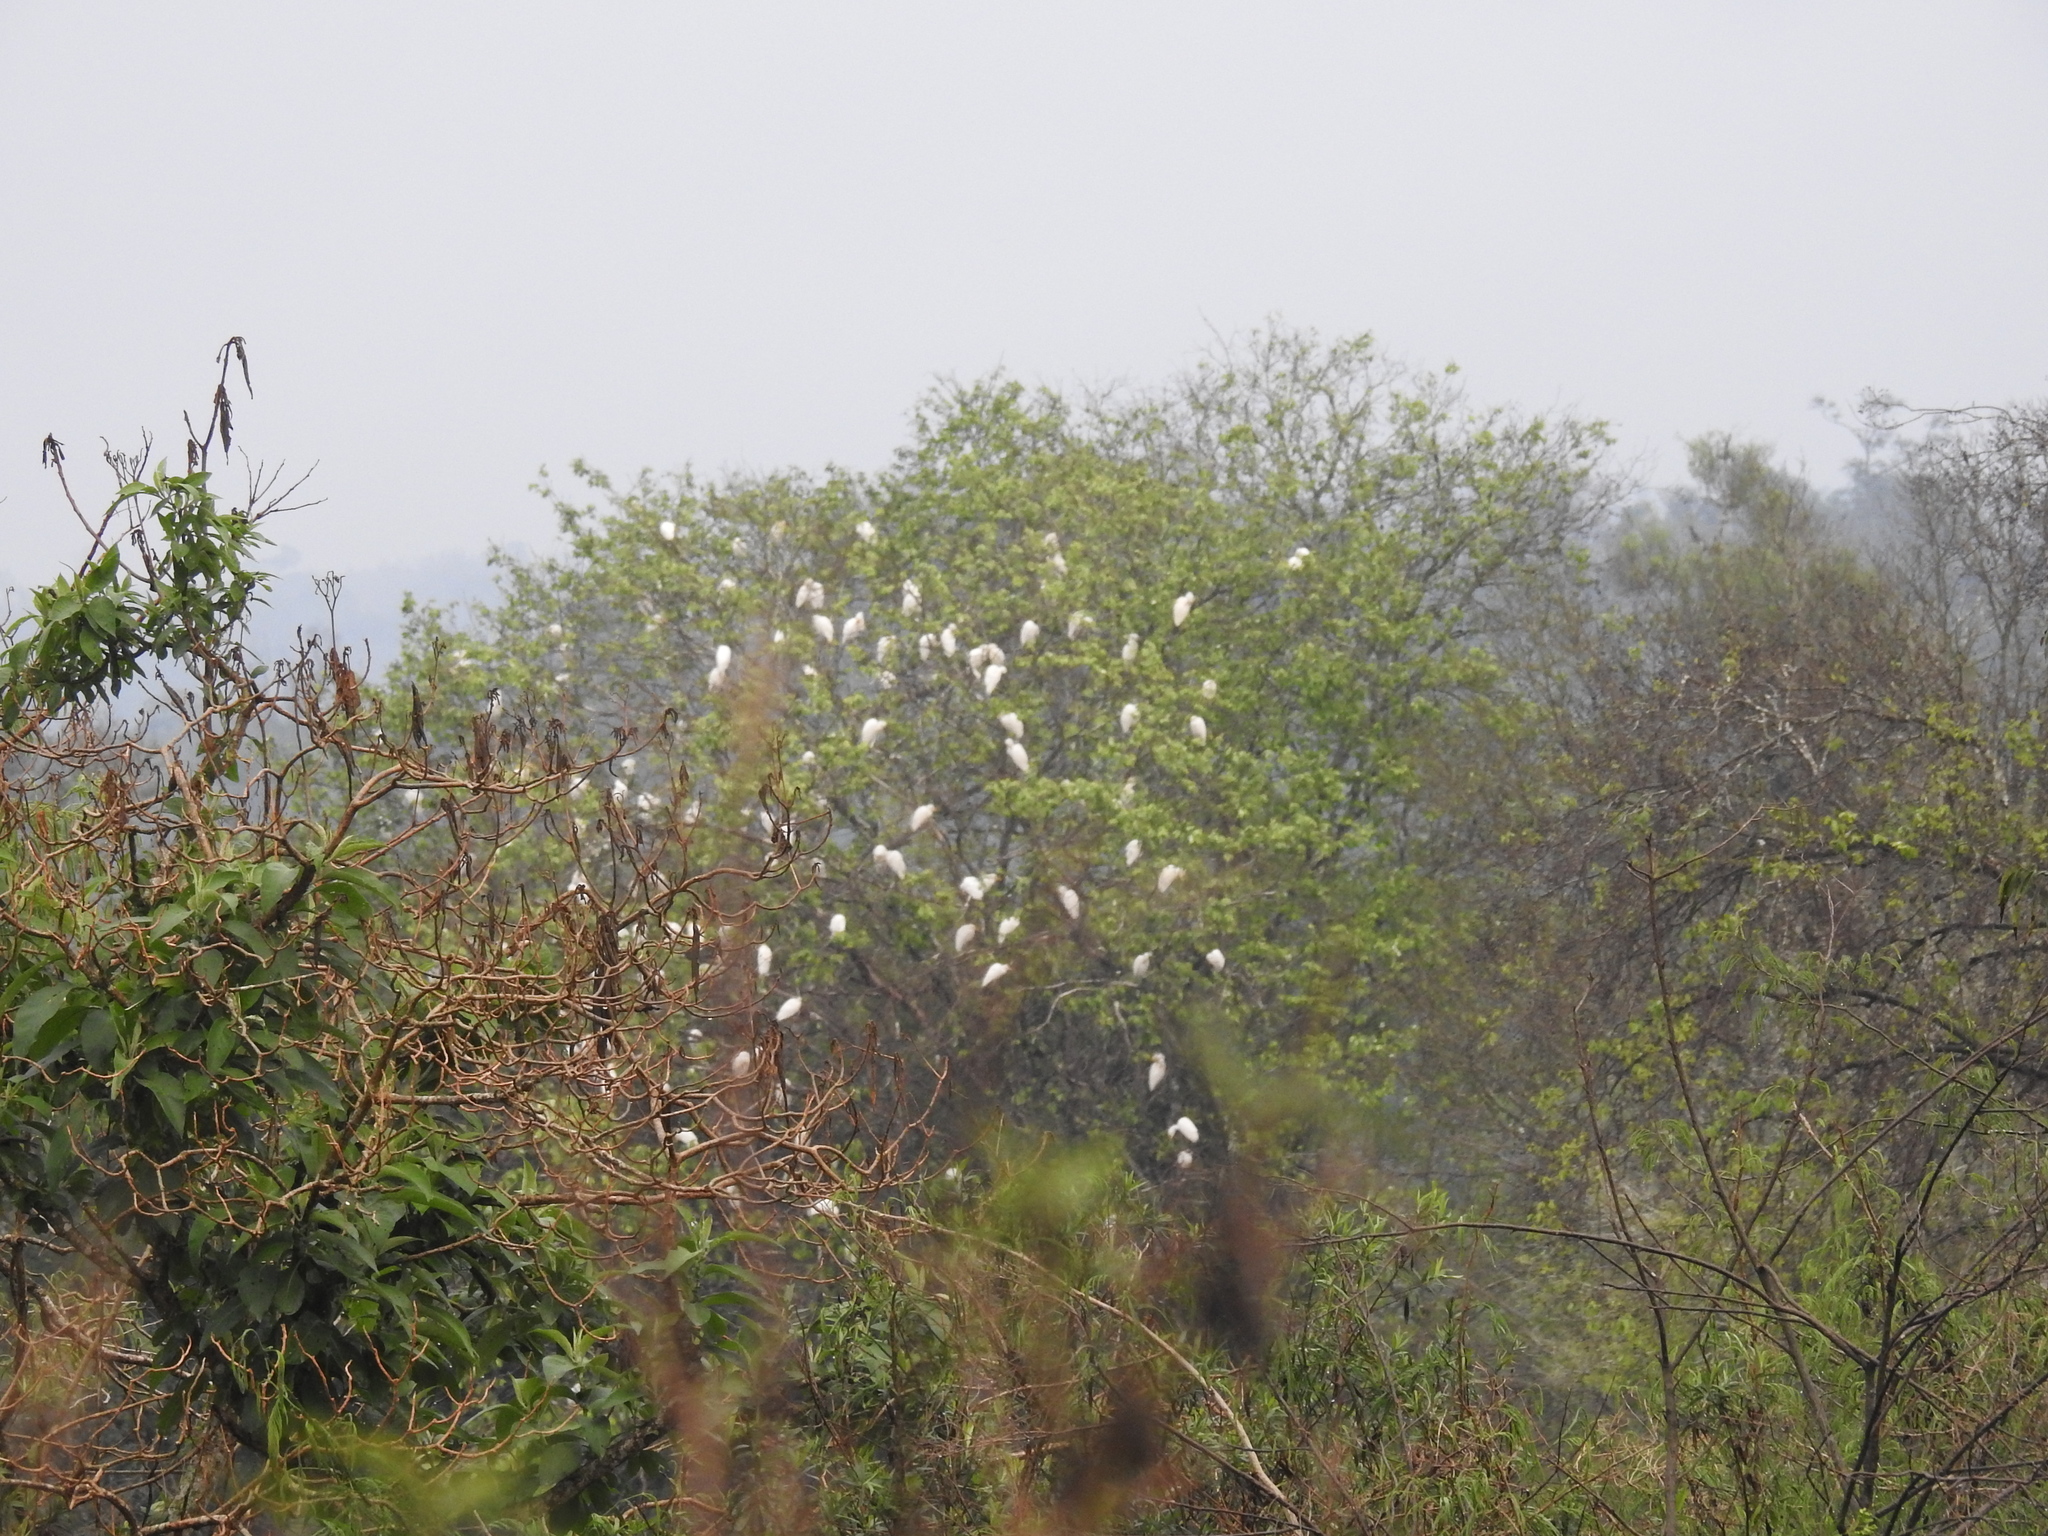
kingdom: Animalia
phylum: Chordata
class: Aves
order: Pelecaniformes
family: Ardeidae
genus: Bubulcus
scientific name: Bubulcus ibis
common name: Cattle egret
